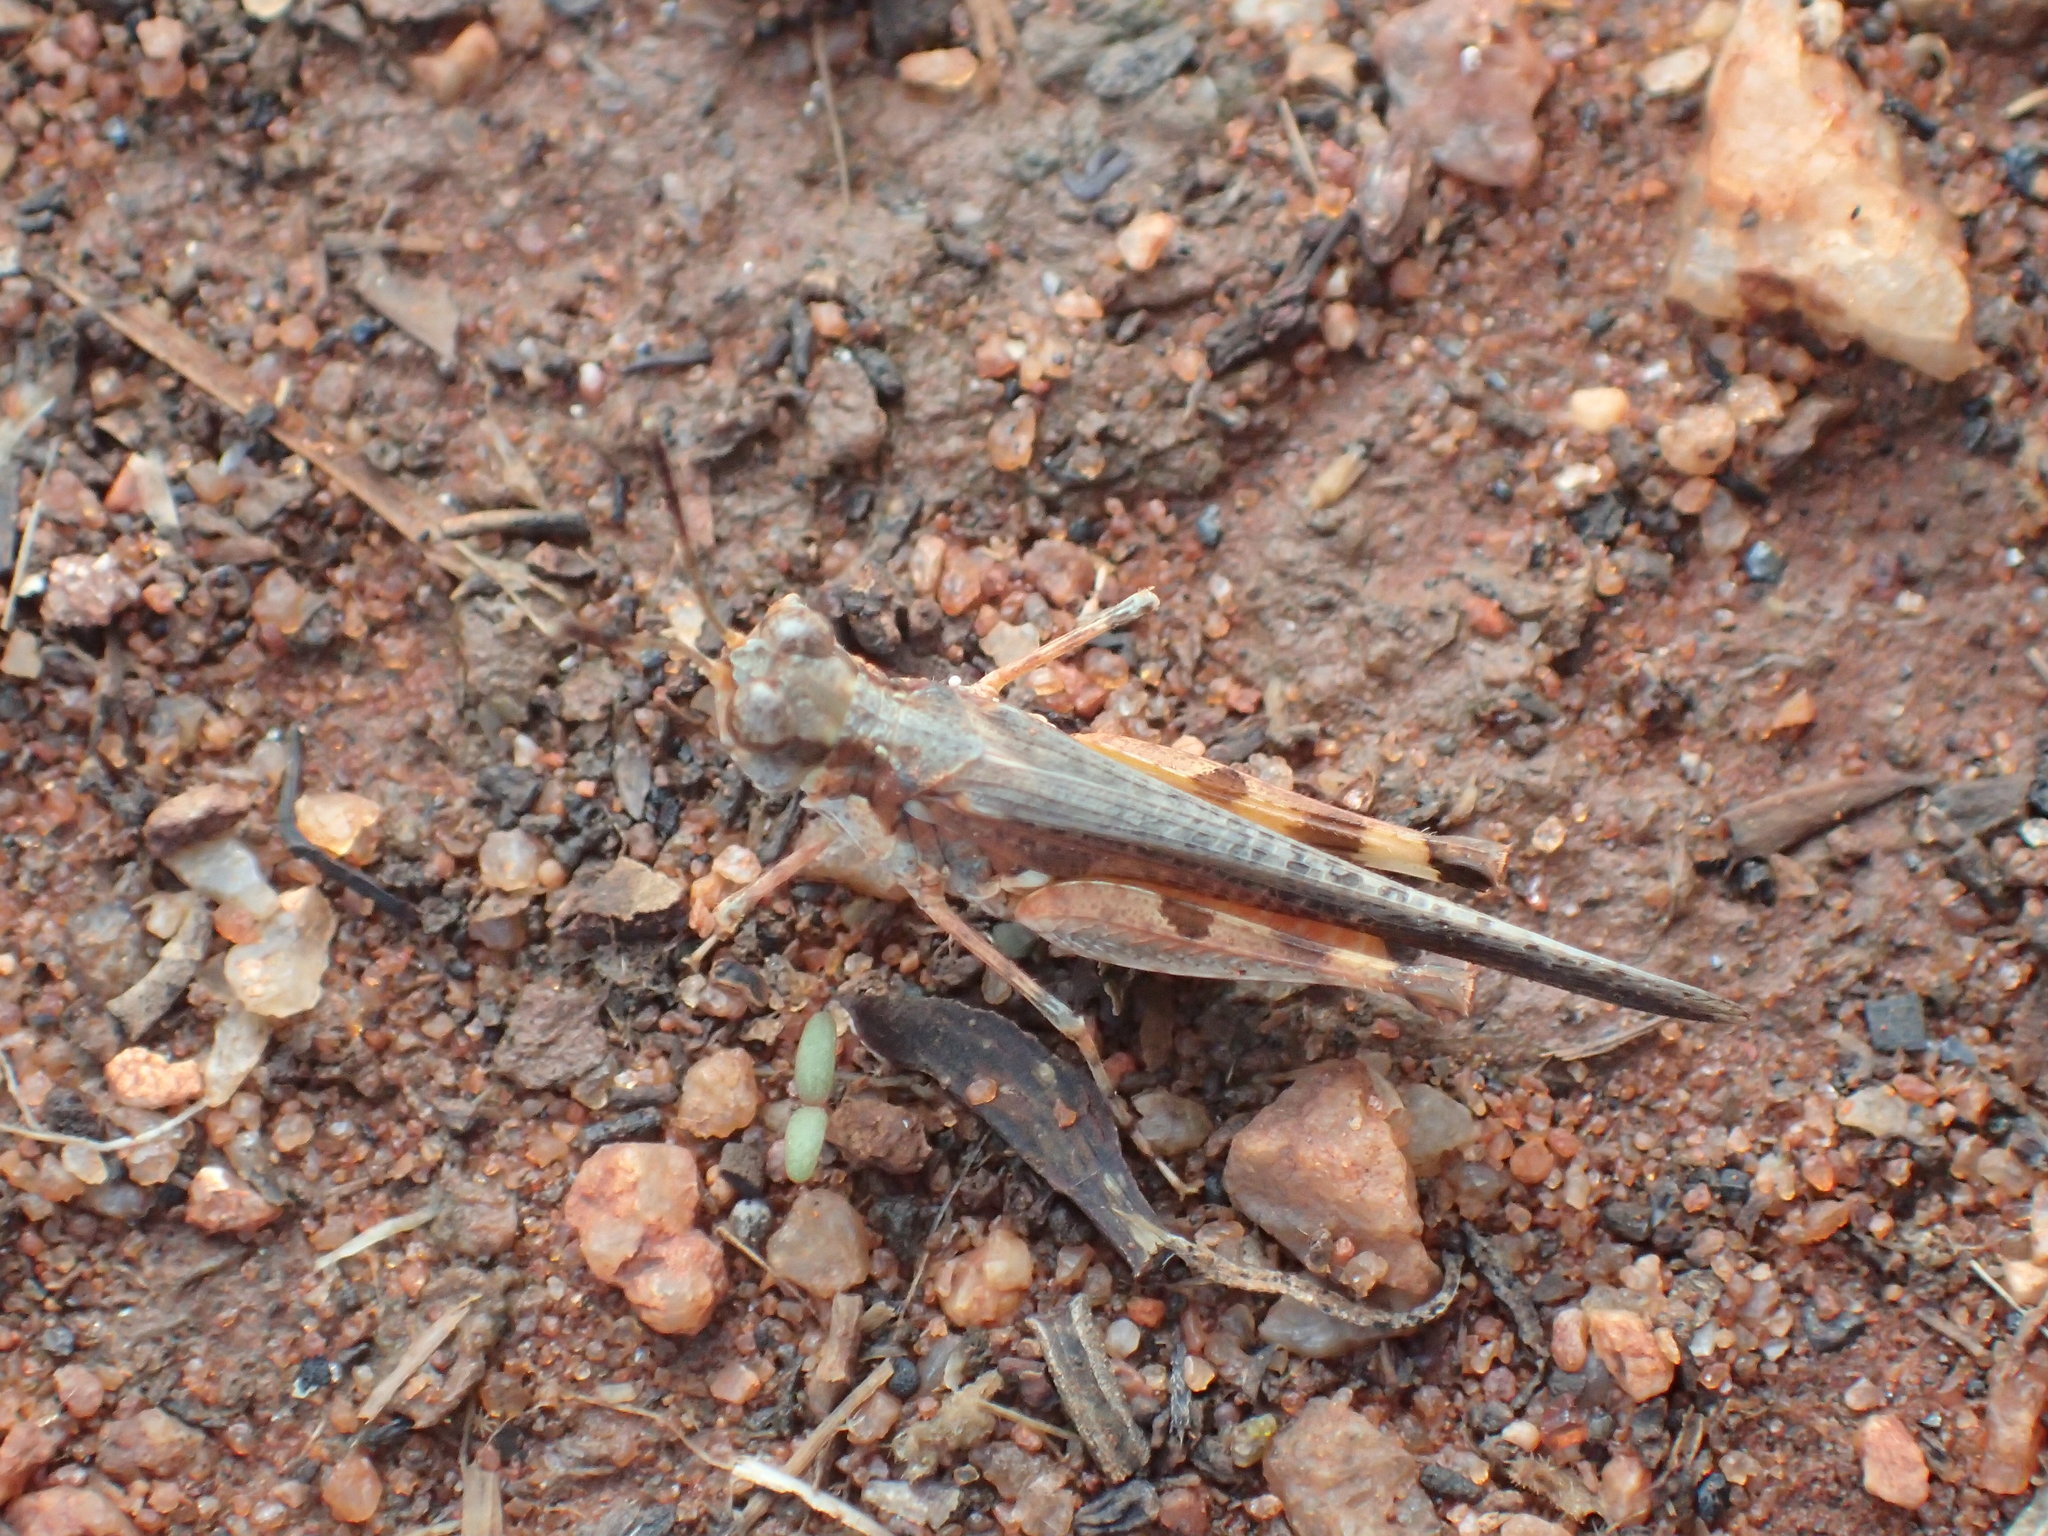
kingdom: Animalia
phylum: Arthropoda
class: Insecta
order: Orthoptera
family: Acrididae
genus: Pycnostictus
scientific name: Pycnostictus seriatus
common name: Common bandwing
